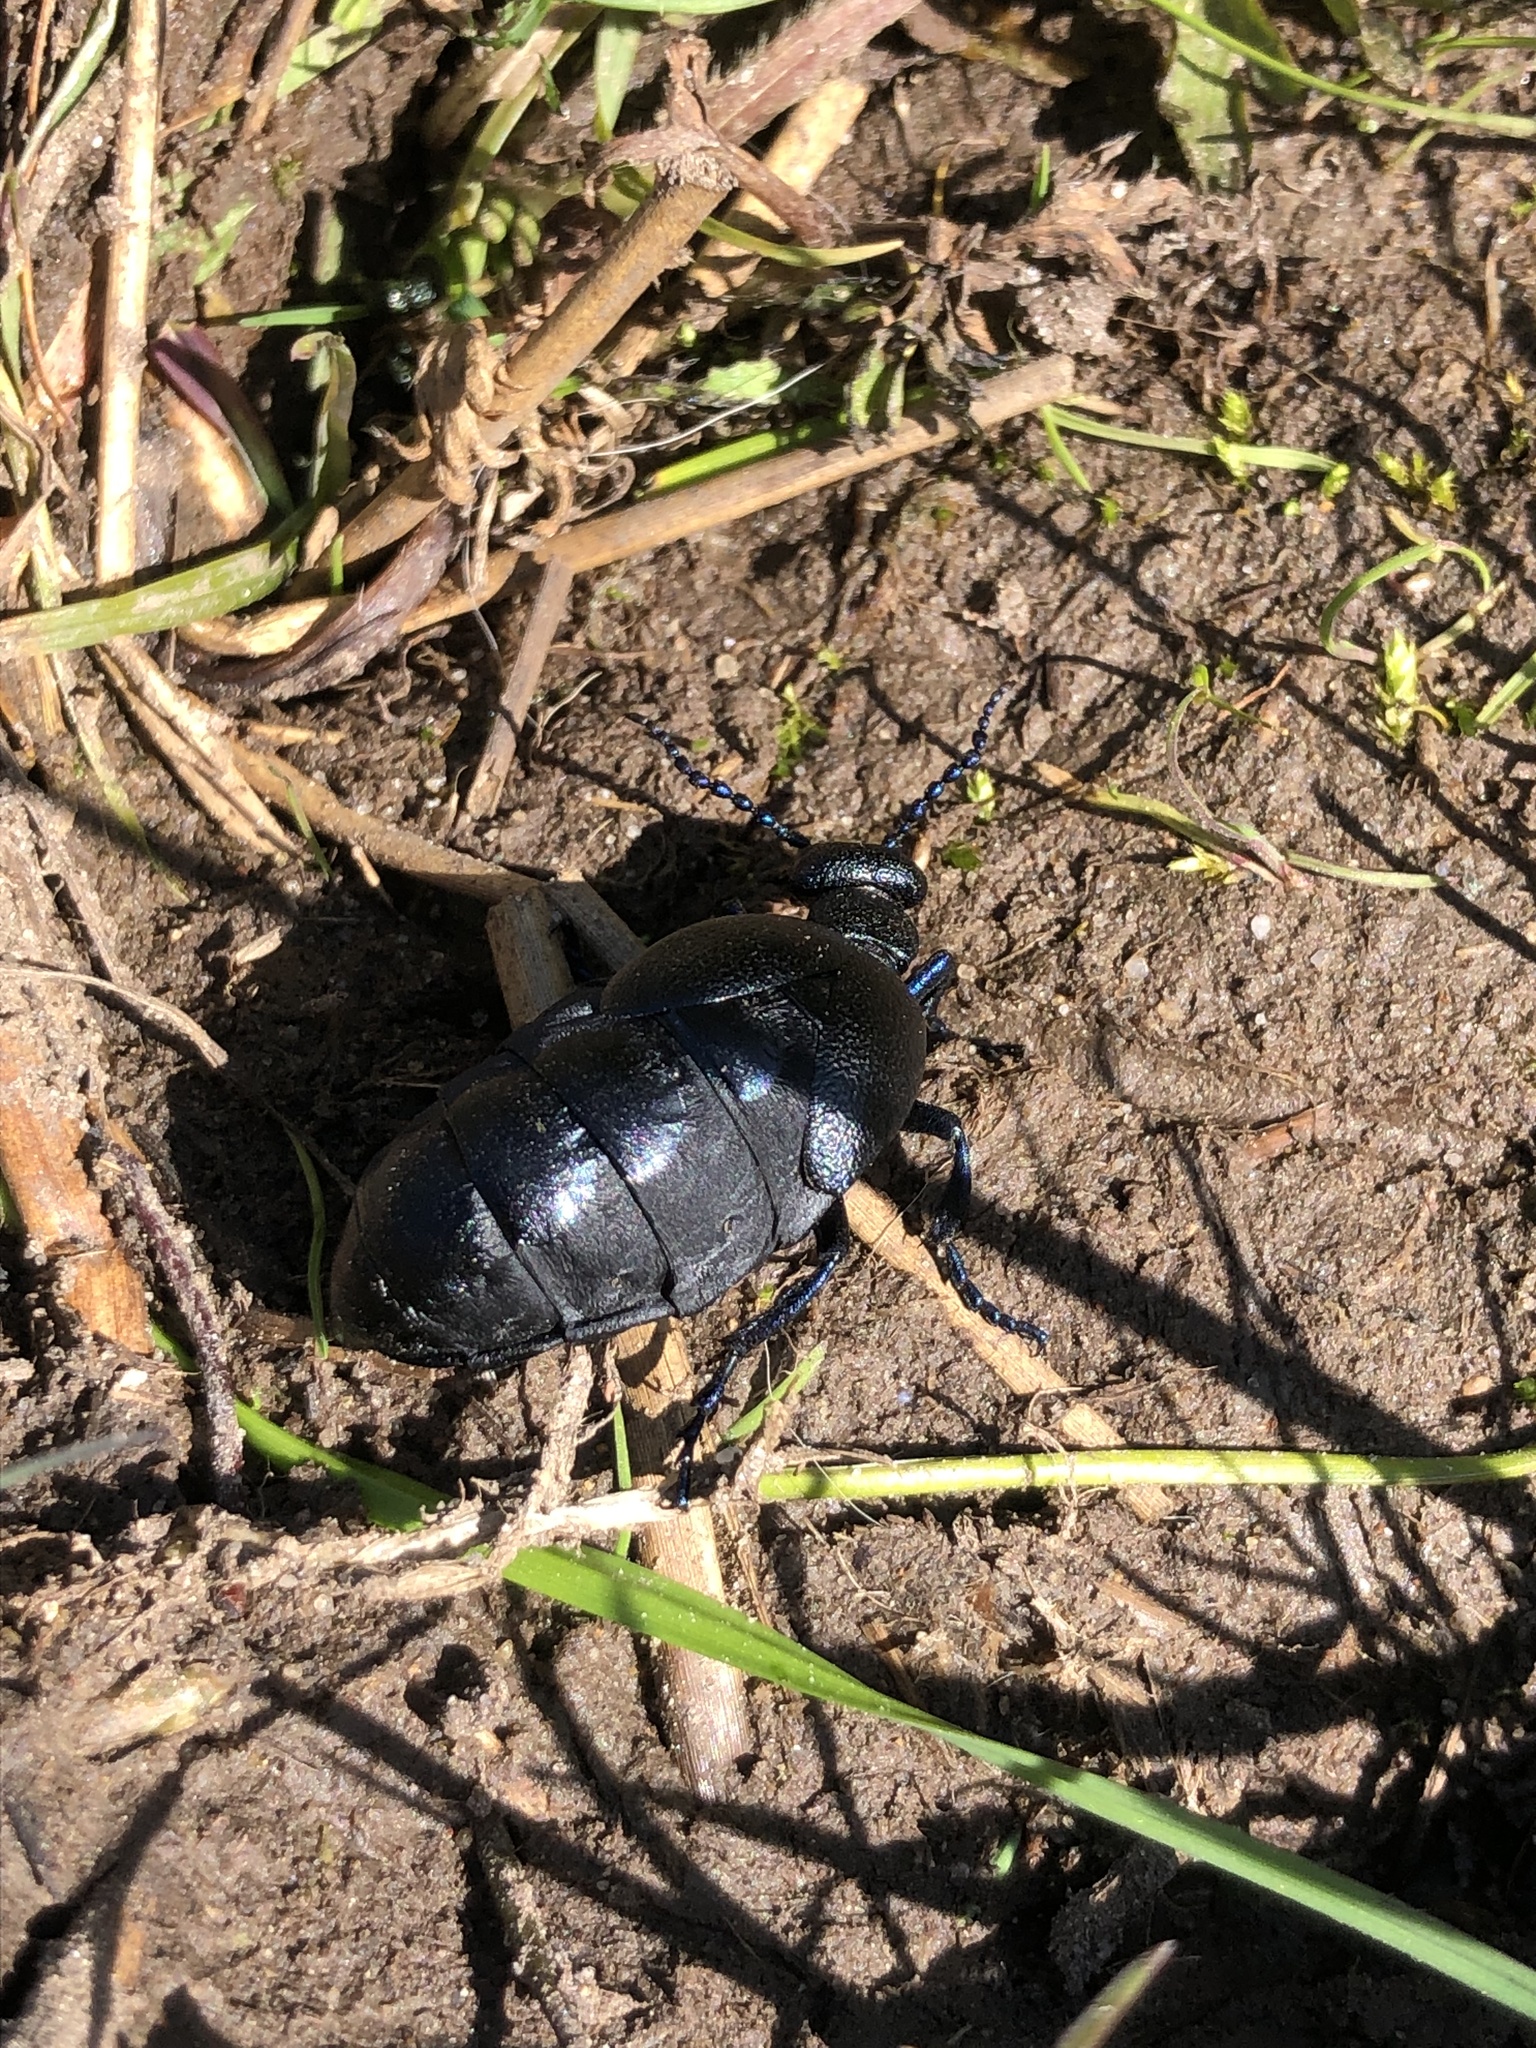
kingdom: Animalia
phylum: Arthropoda
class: Insecta
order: Coleoptera
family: Meloidae
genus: Meloe
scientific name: Meloe proscarabaeus
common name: Black oil-beetle
